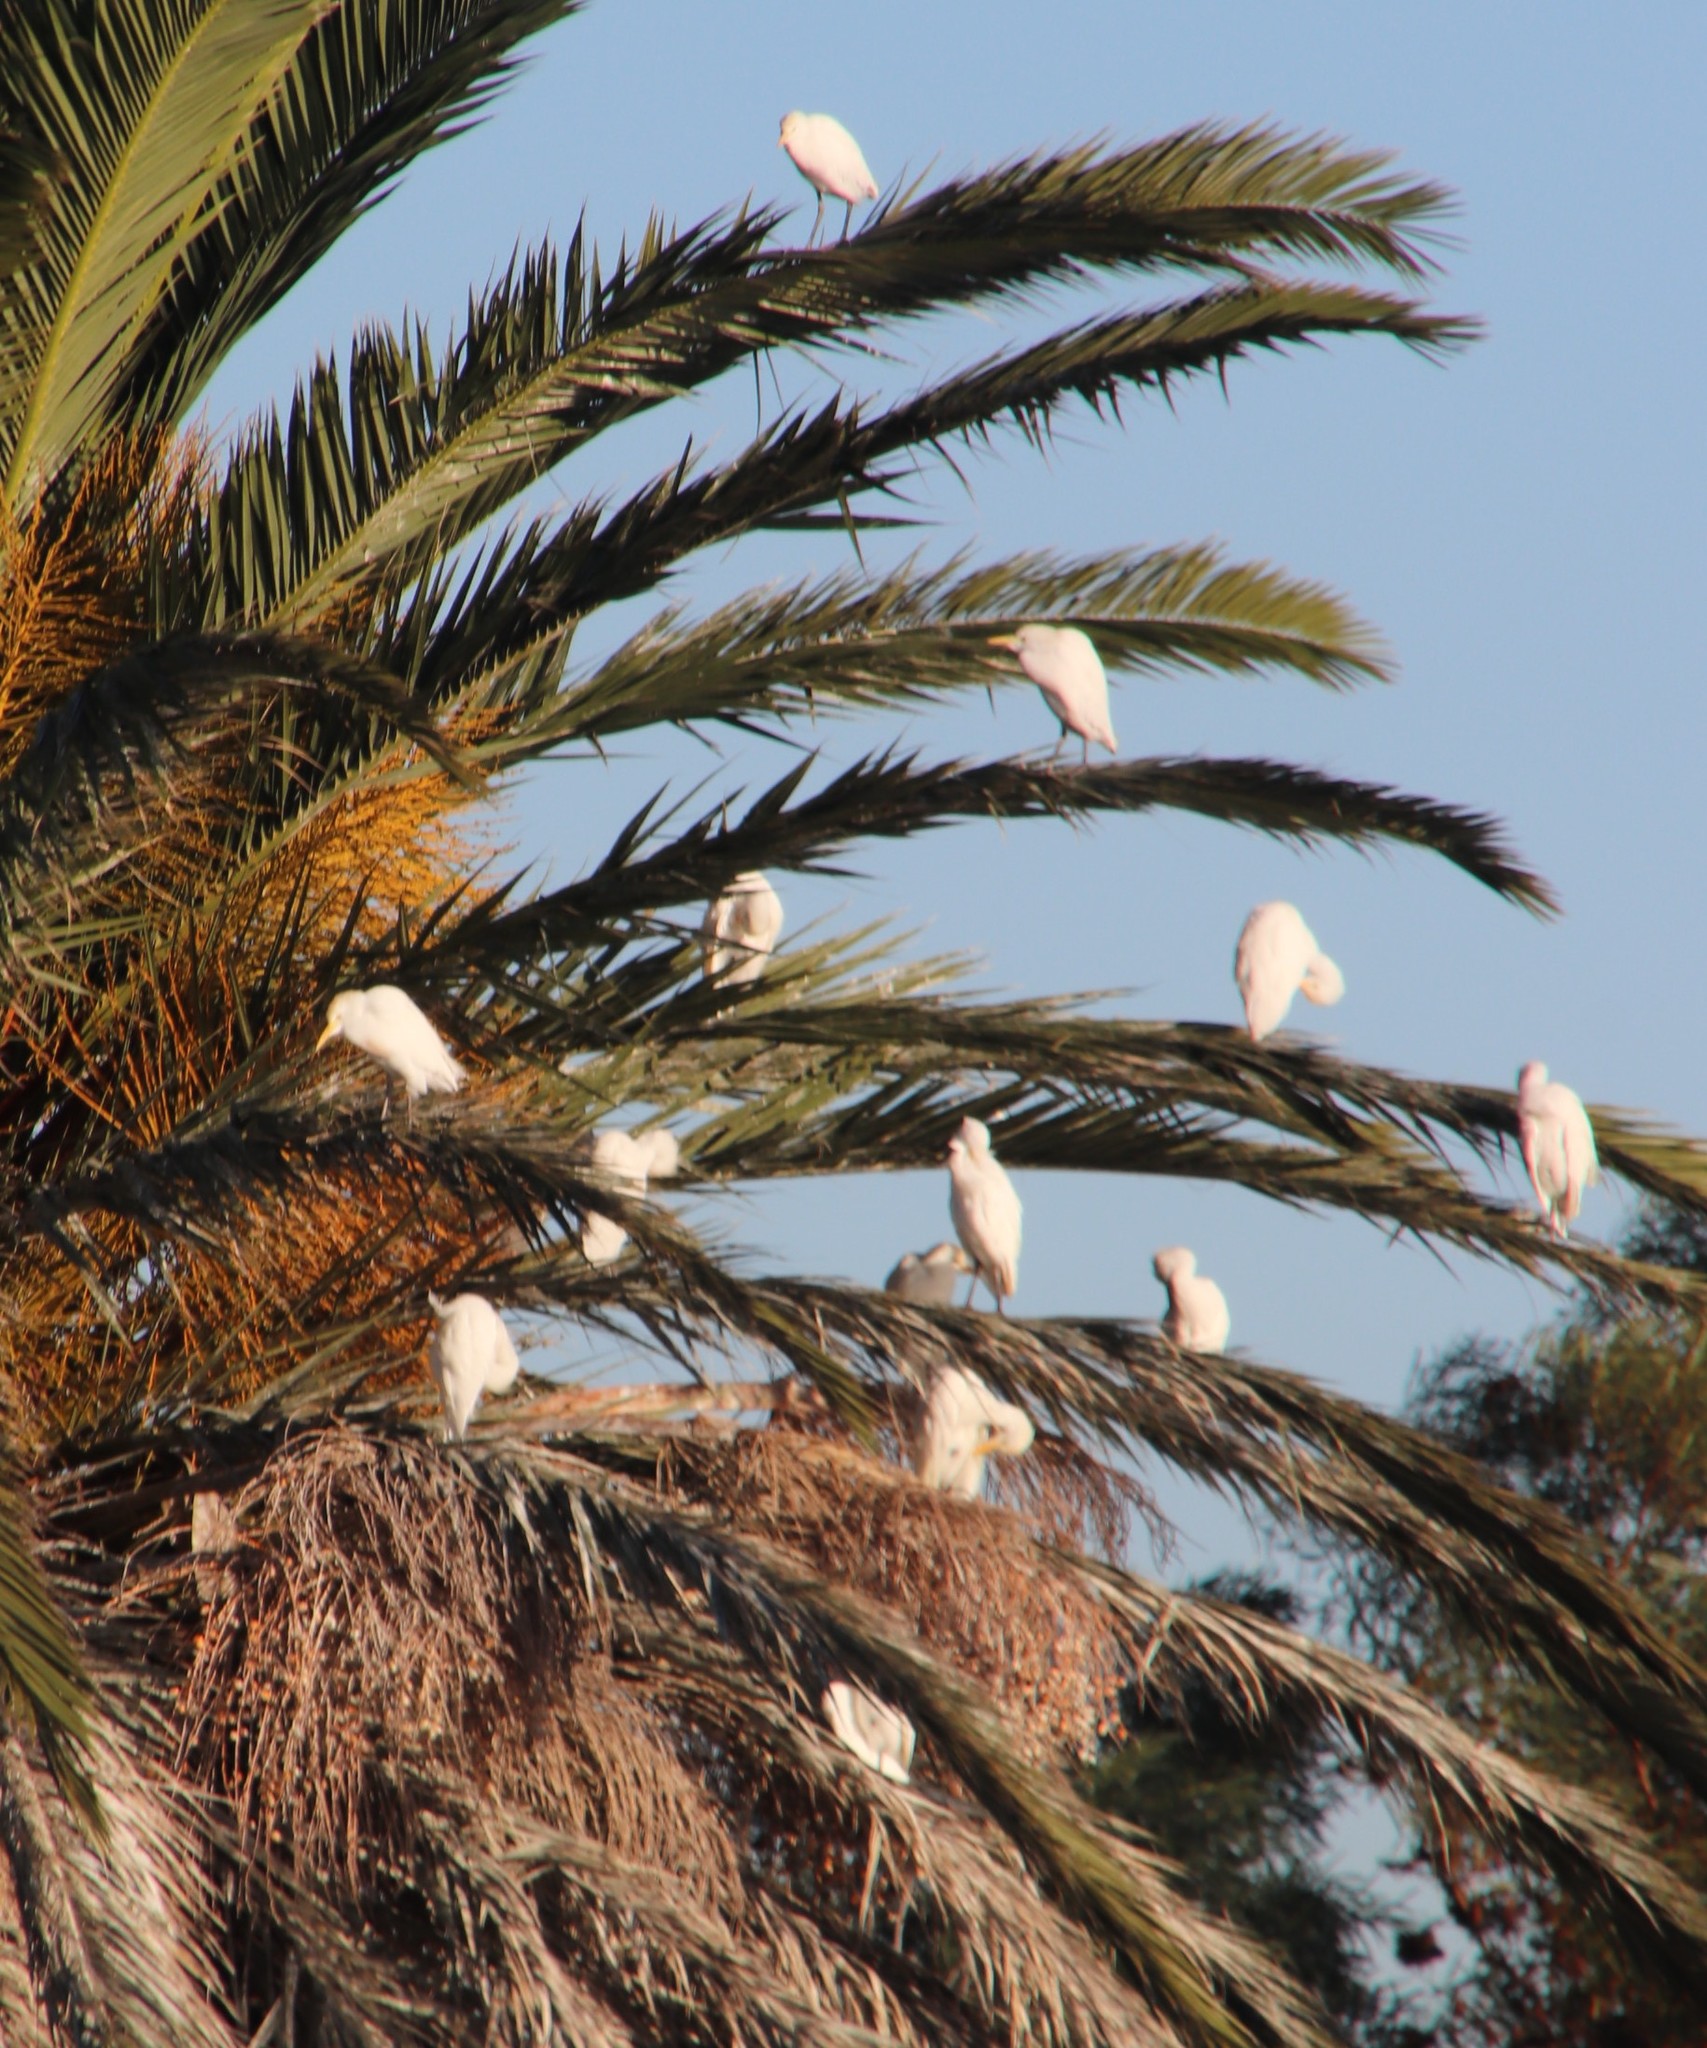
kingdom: Animalia
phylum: Chordata
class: Aves
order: Pelecaniformes
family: Ardeidae
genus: Bubulcus
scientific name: Bubulcus ibis
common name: Cattle egret
